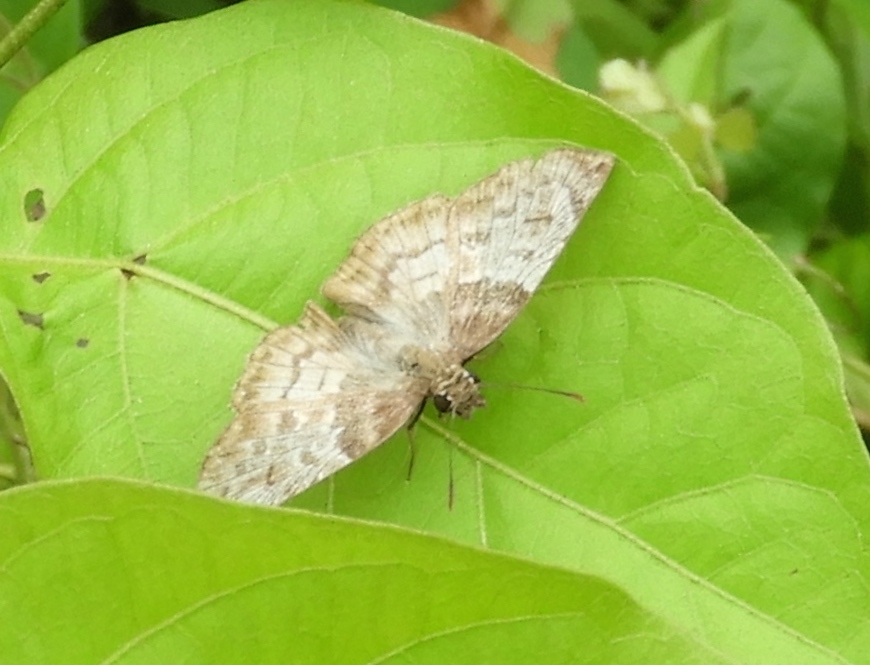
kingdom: Animalia
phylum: Arthropoda
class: Insecta
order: Lepidoptera
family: Hesperiidae
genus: Mylon
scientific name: Mylon pelopidas
